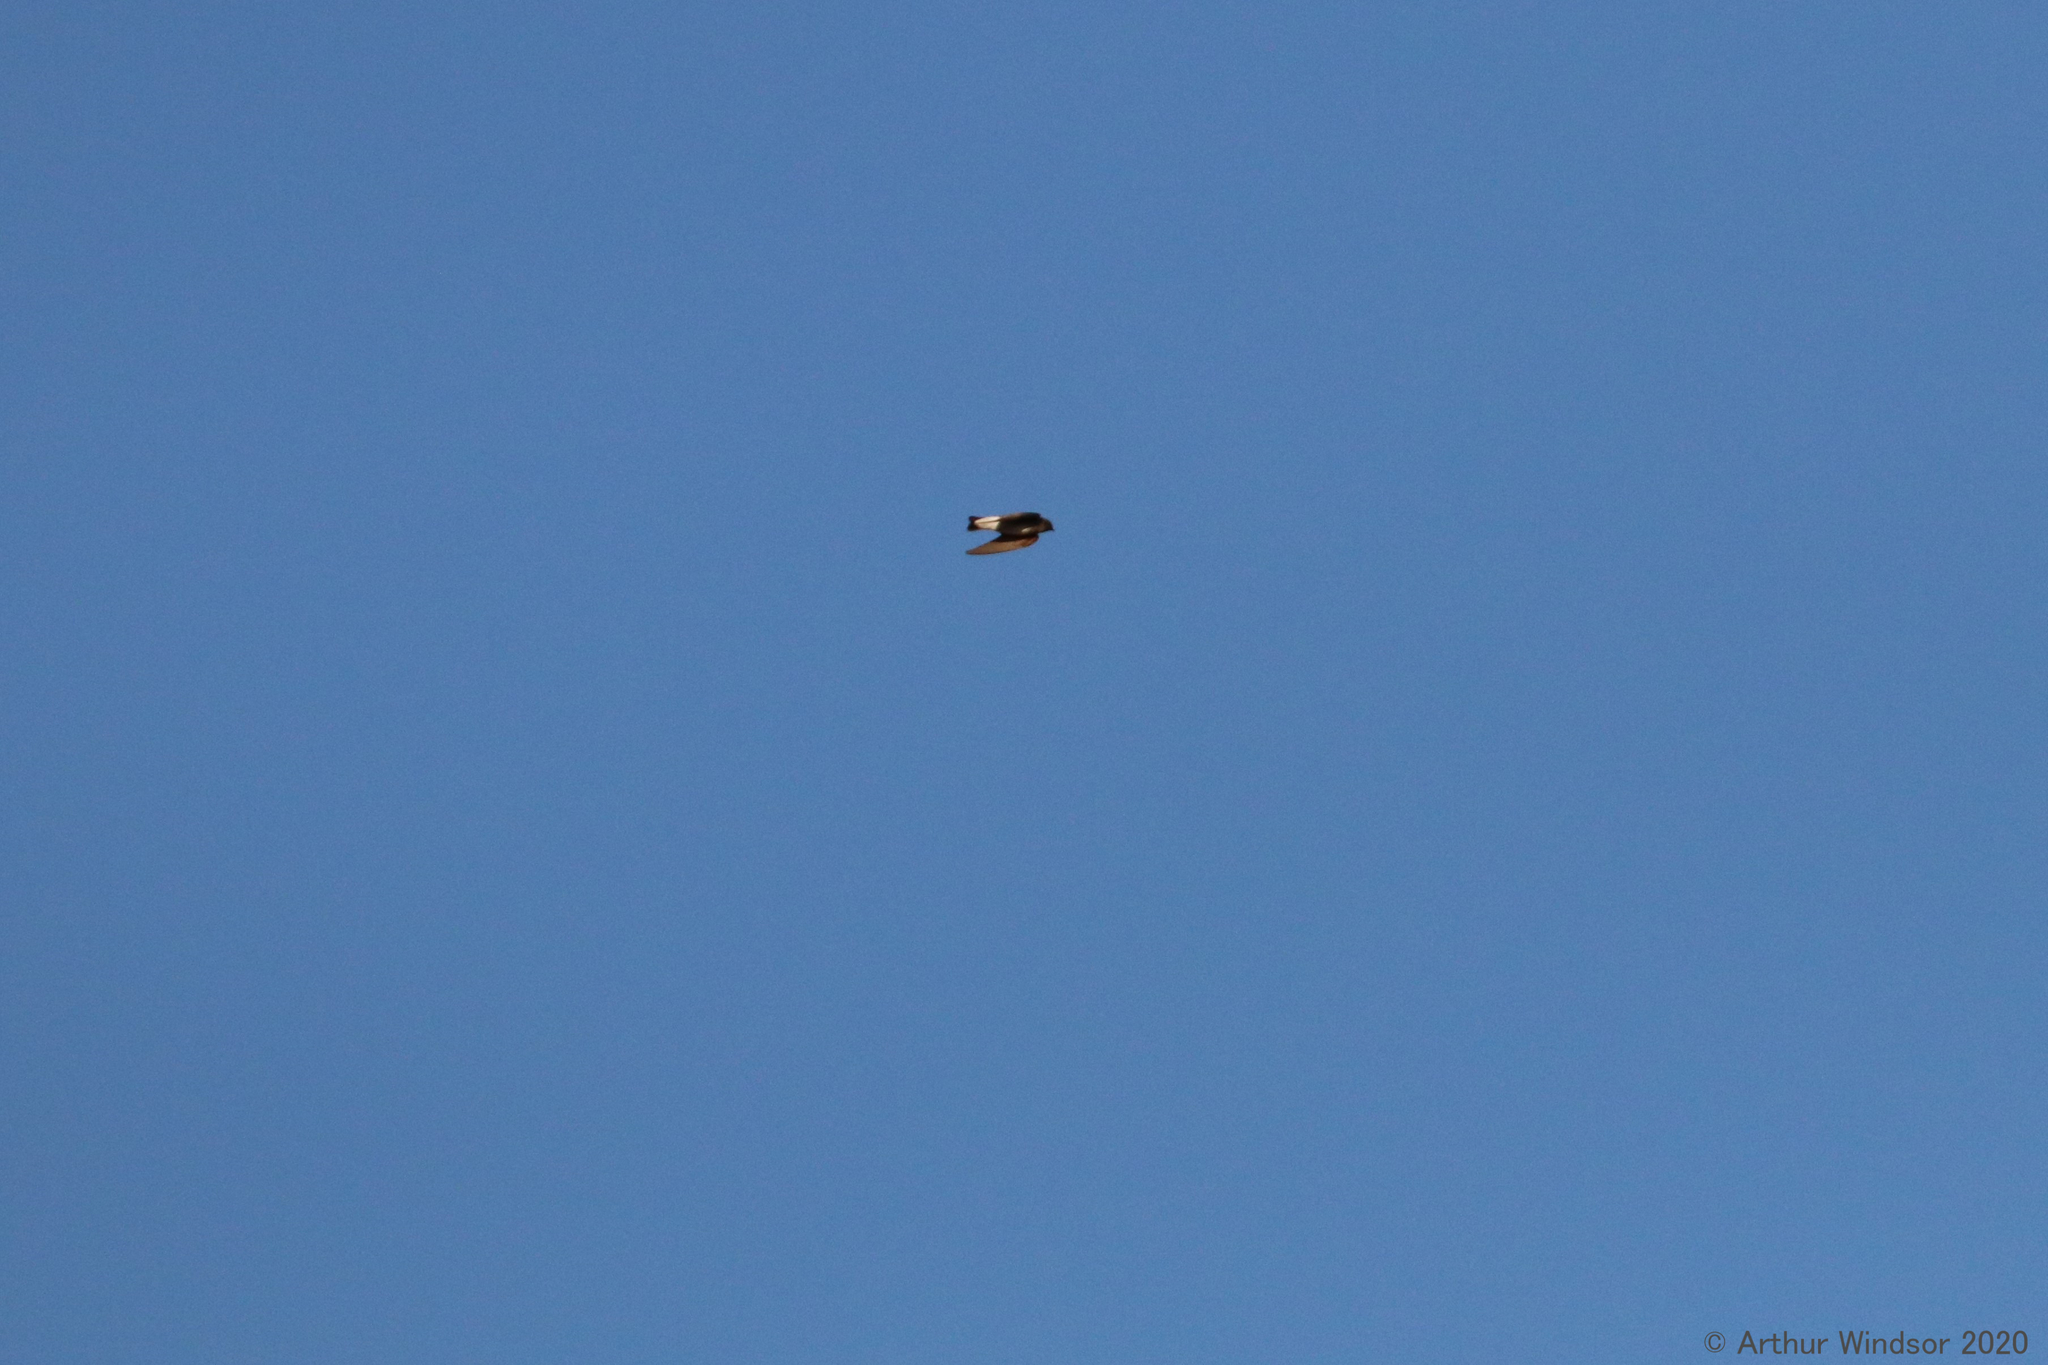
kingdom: Animalia
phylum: Chordata
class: Aves
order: Passeriformes
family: Hirundinidae
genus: Stelgidopteryx
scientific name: Stelgidopteryx serripennis
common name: Northern rough-winged swallow
